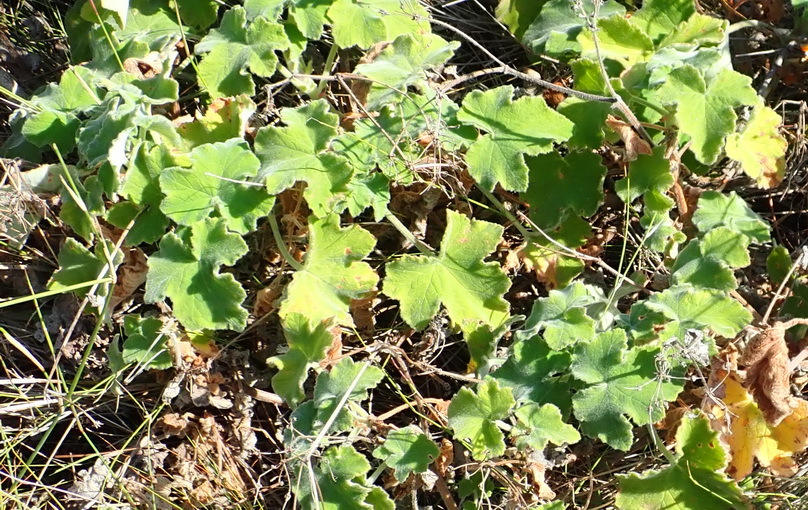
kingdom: Plantae
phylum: Tracheophyta
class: Magnoliopsida
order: Geraniales
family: Geraniaceae
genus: Pelargonium
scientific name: Pelargonium tomentosum
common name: Peppermint-scented geranium
